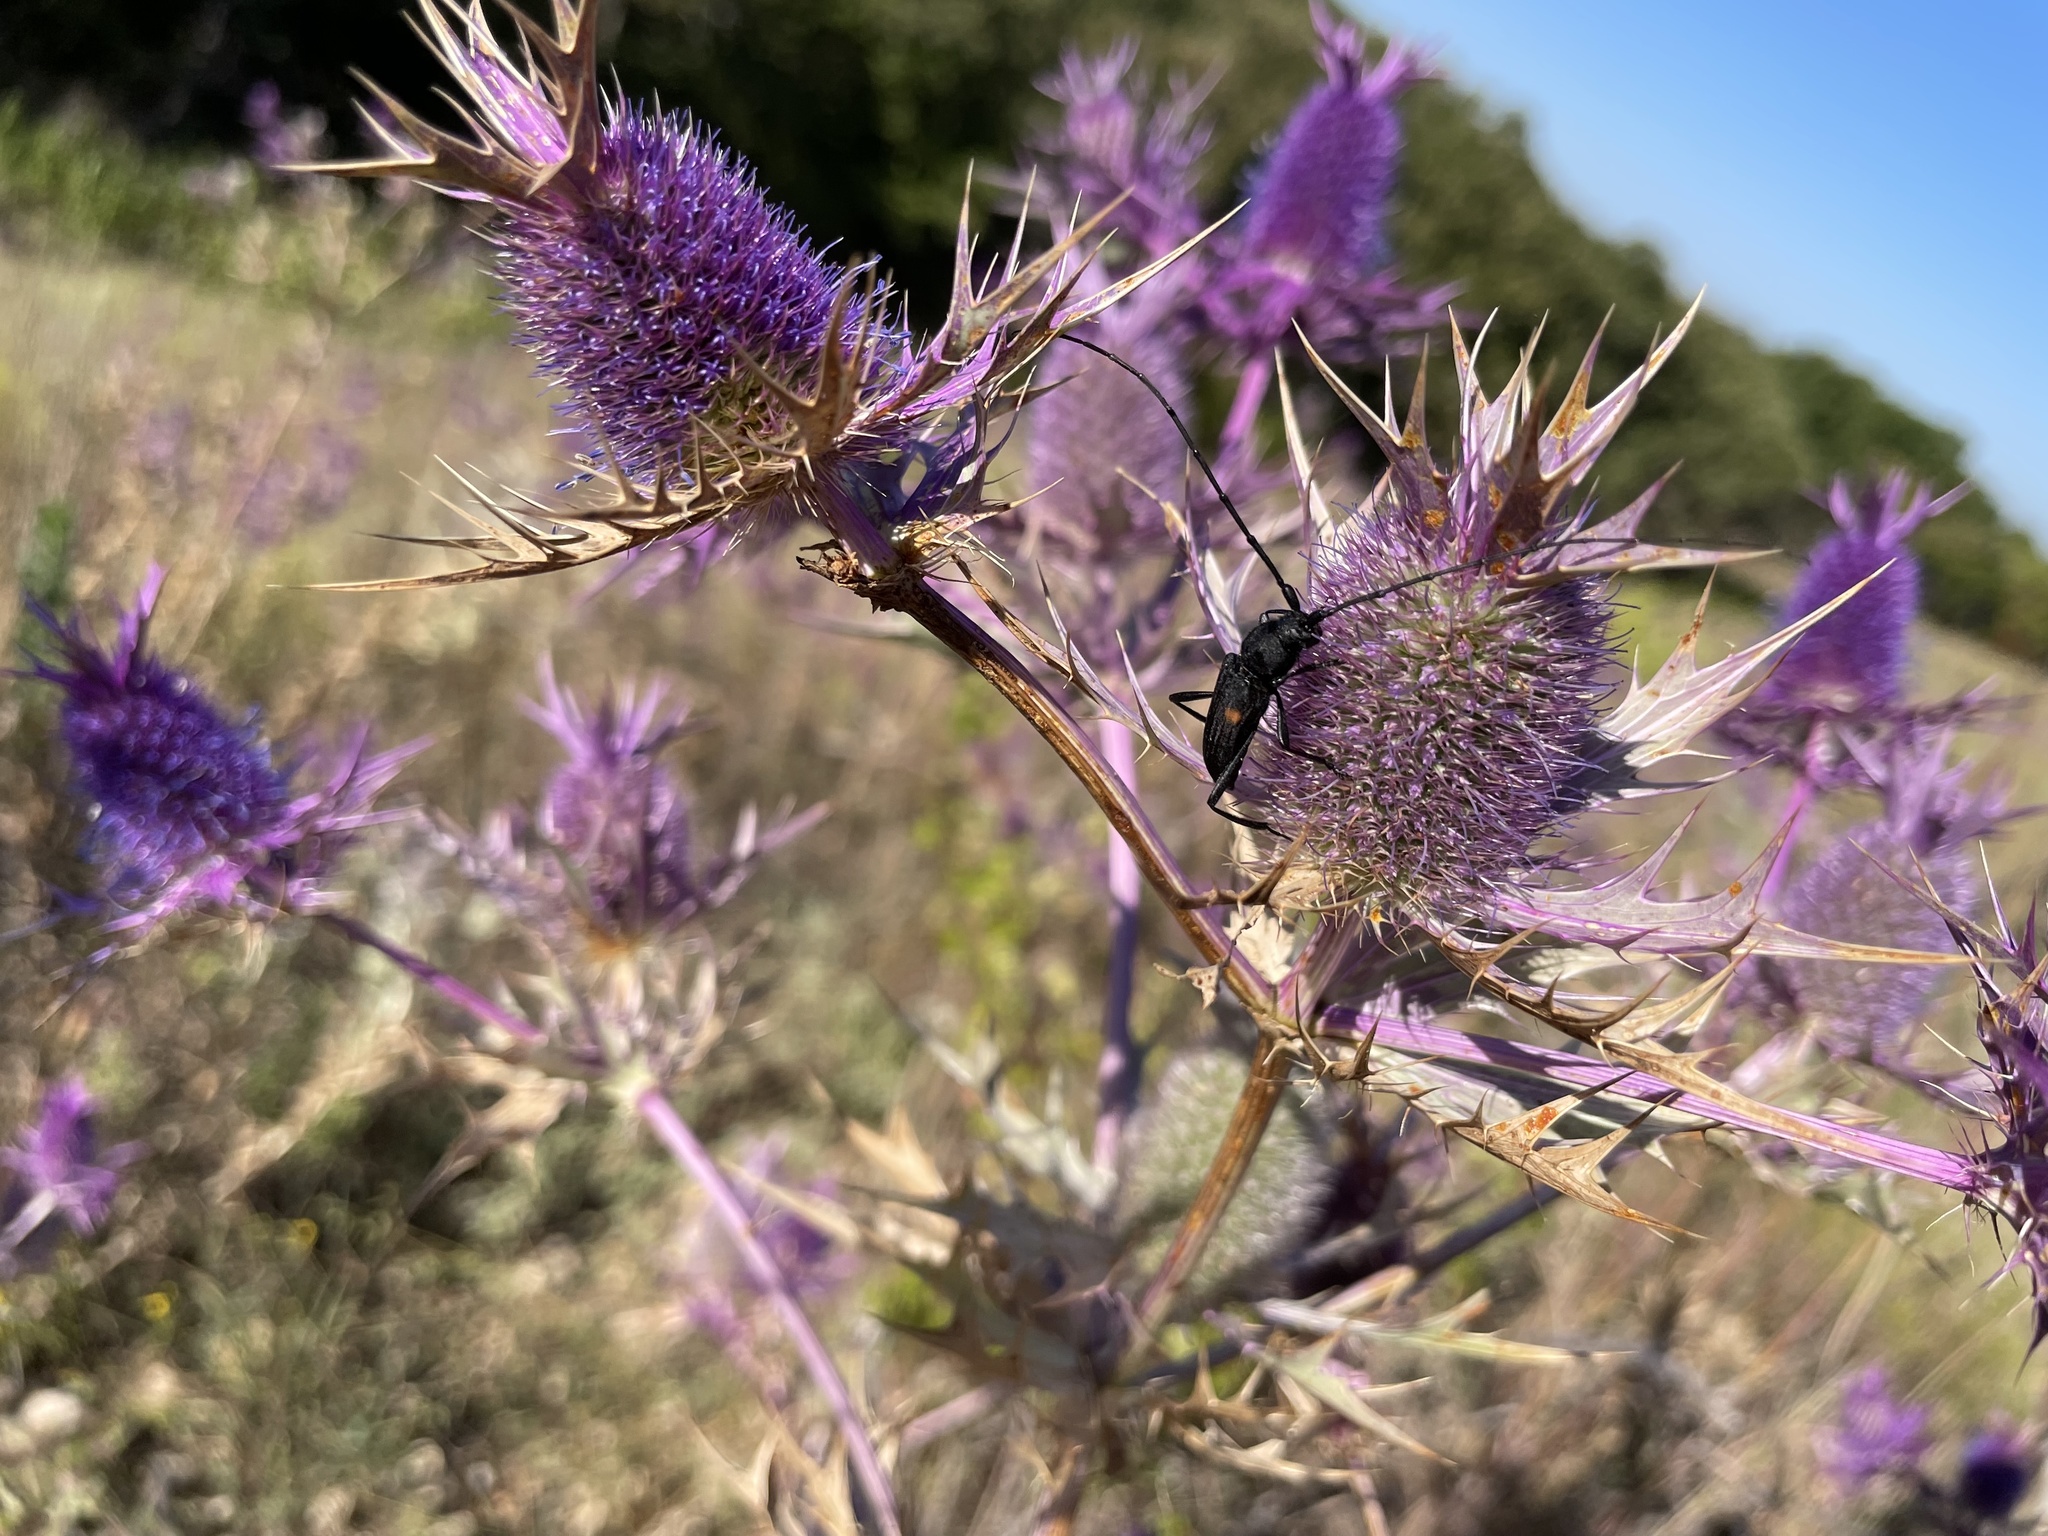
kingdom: Animalia
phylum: Arthropoda
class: Insecta
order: Coleoptera
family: Cerambycidae
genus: Tragidion
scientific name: Tragidion coquus
